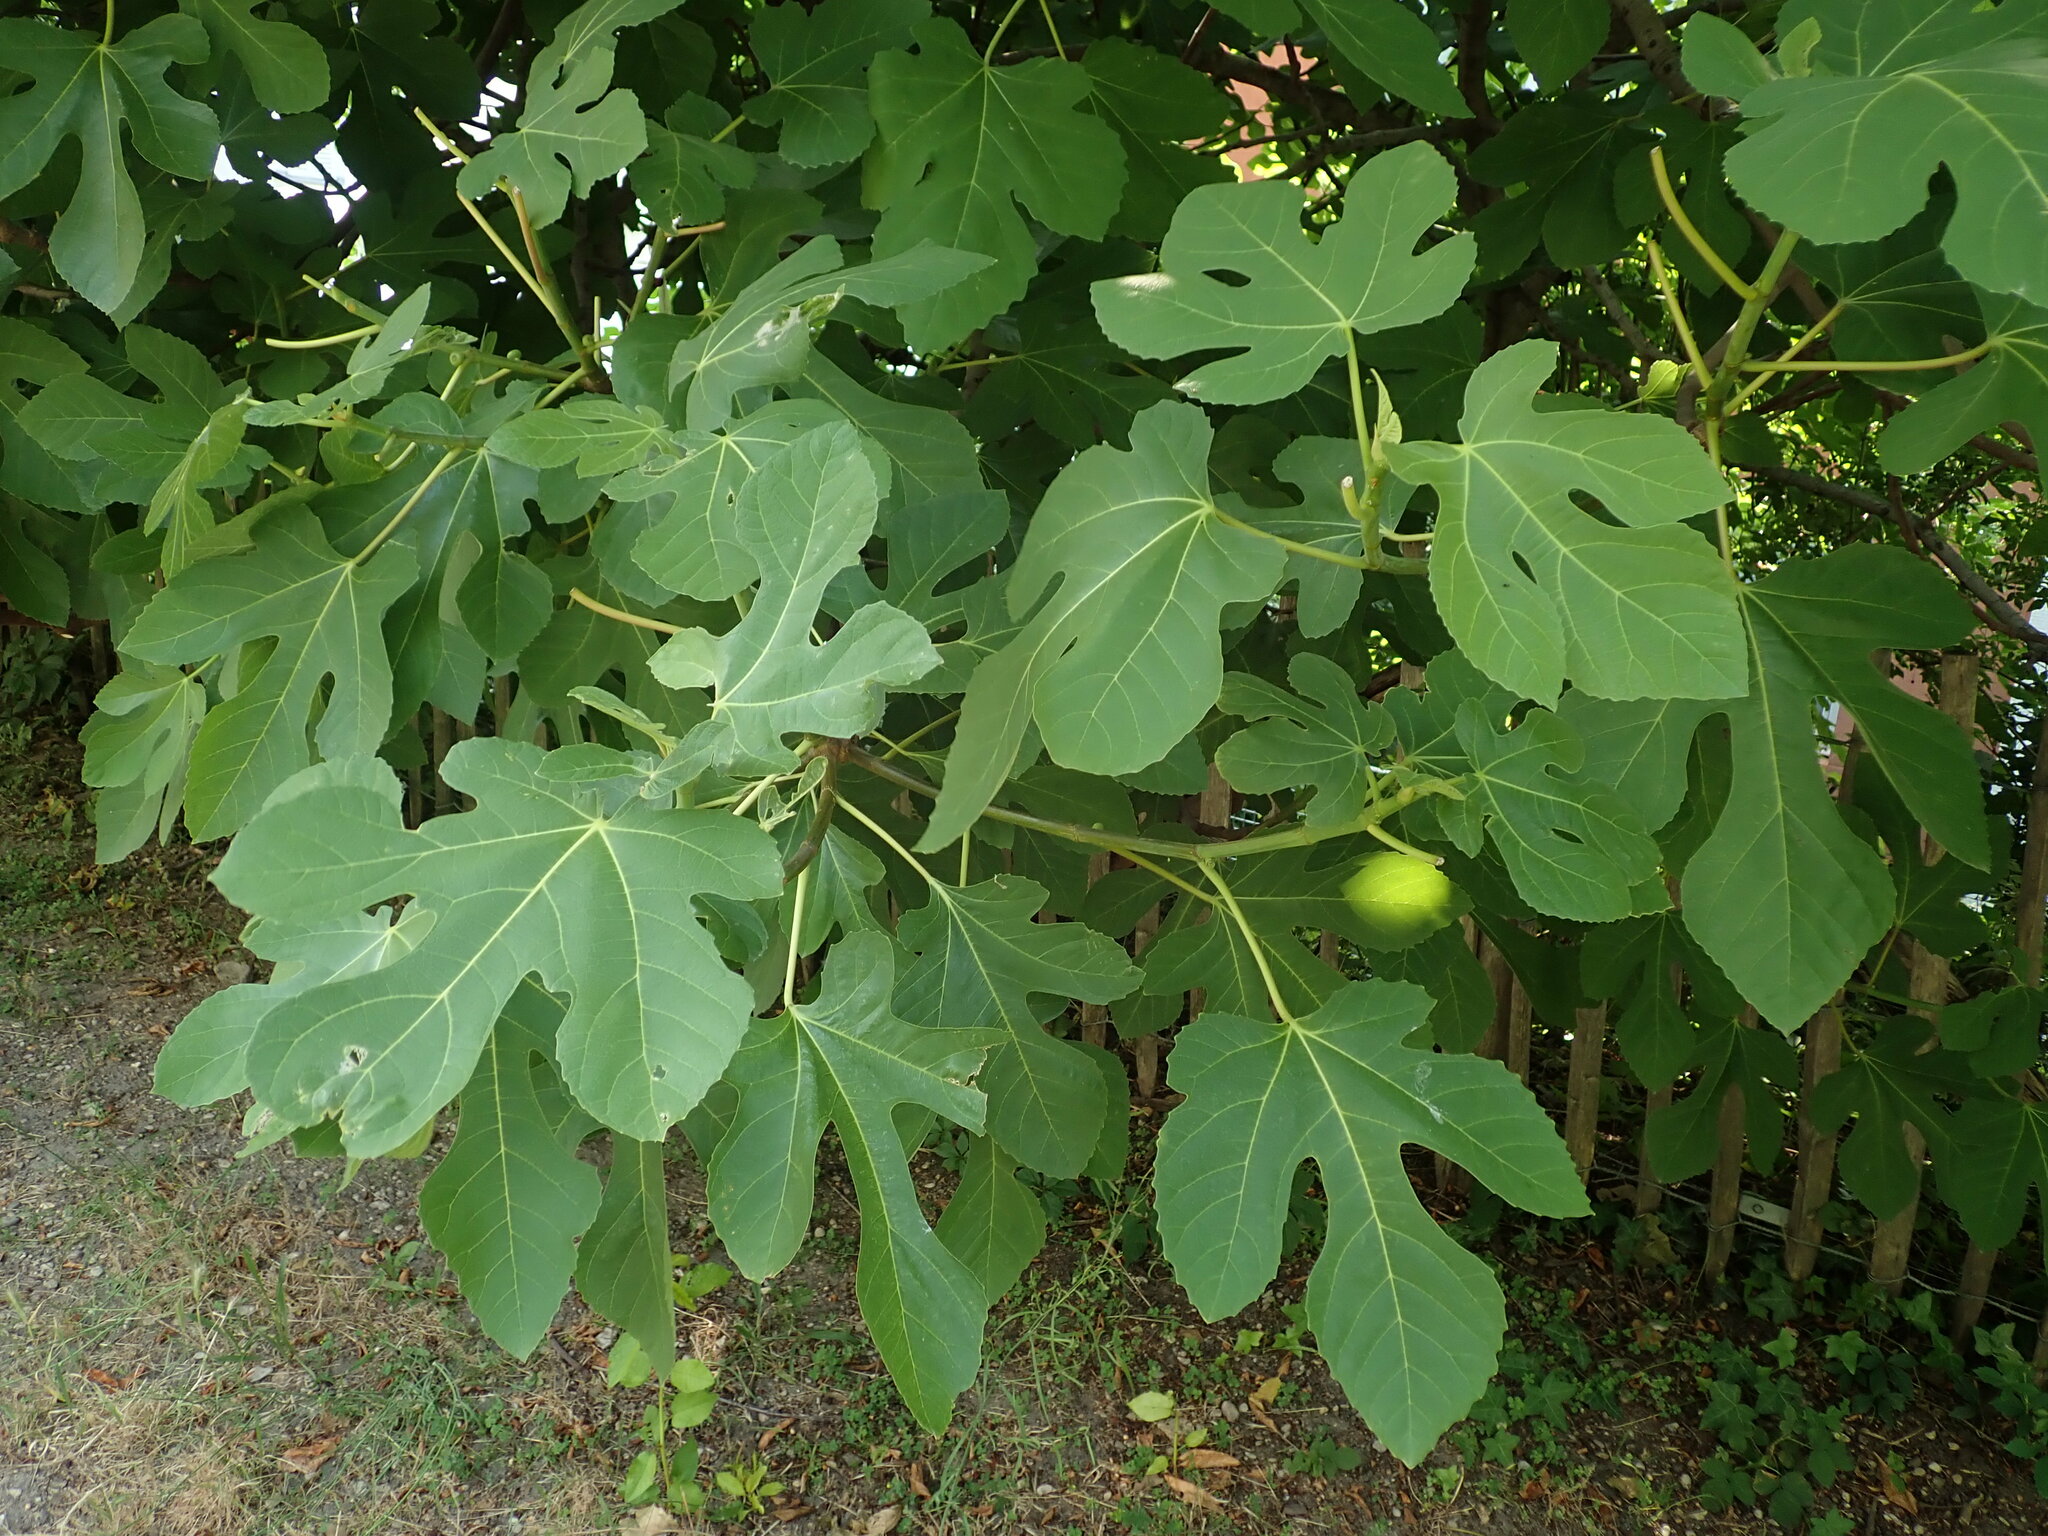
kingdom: Plantae
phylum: Tracheophyta
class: Magnoliopsida
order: Rosales
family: Moraceae
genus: Ficus
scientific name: Ficus carica
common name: Fig
